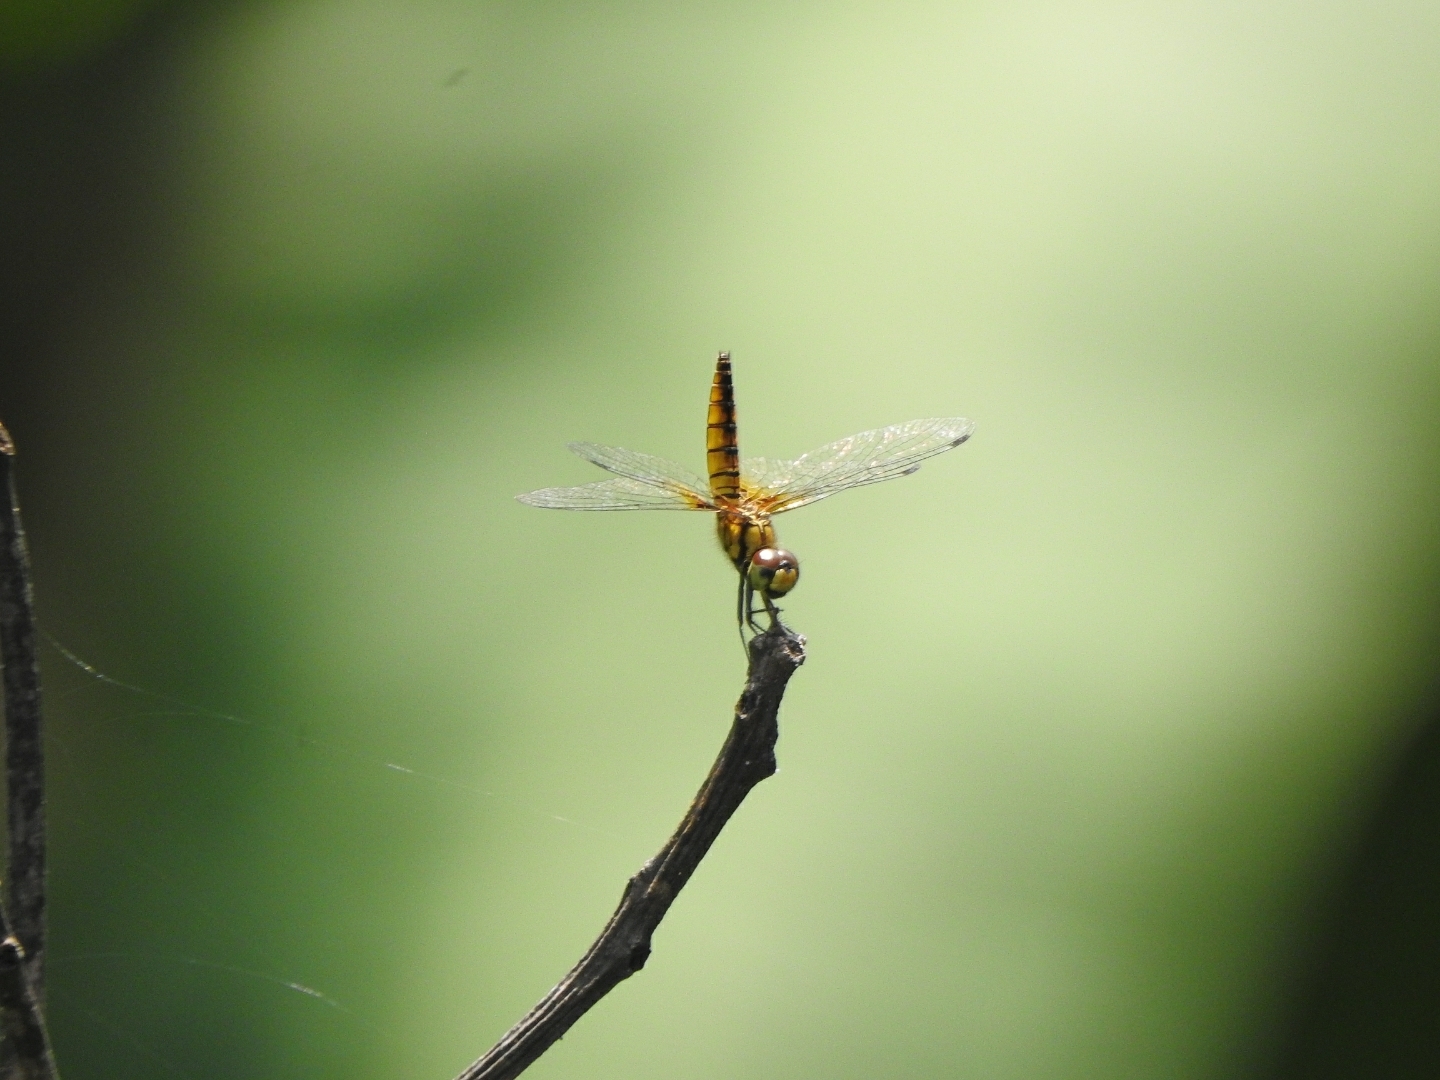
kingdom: Animalia
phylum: Arthropoda
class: Insecta
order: Odonata
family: Libellulidae
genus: Aethriamanta
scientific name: Aethriamanta brevipennis
